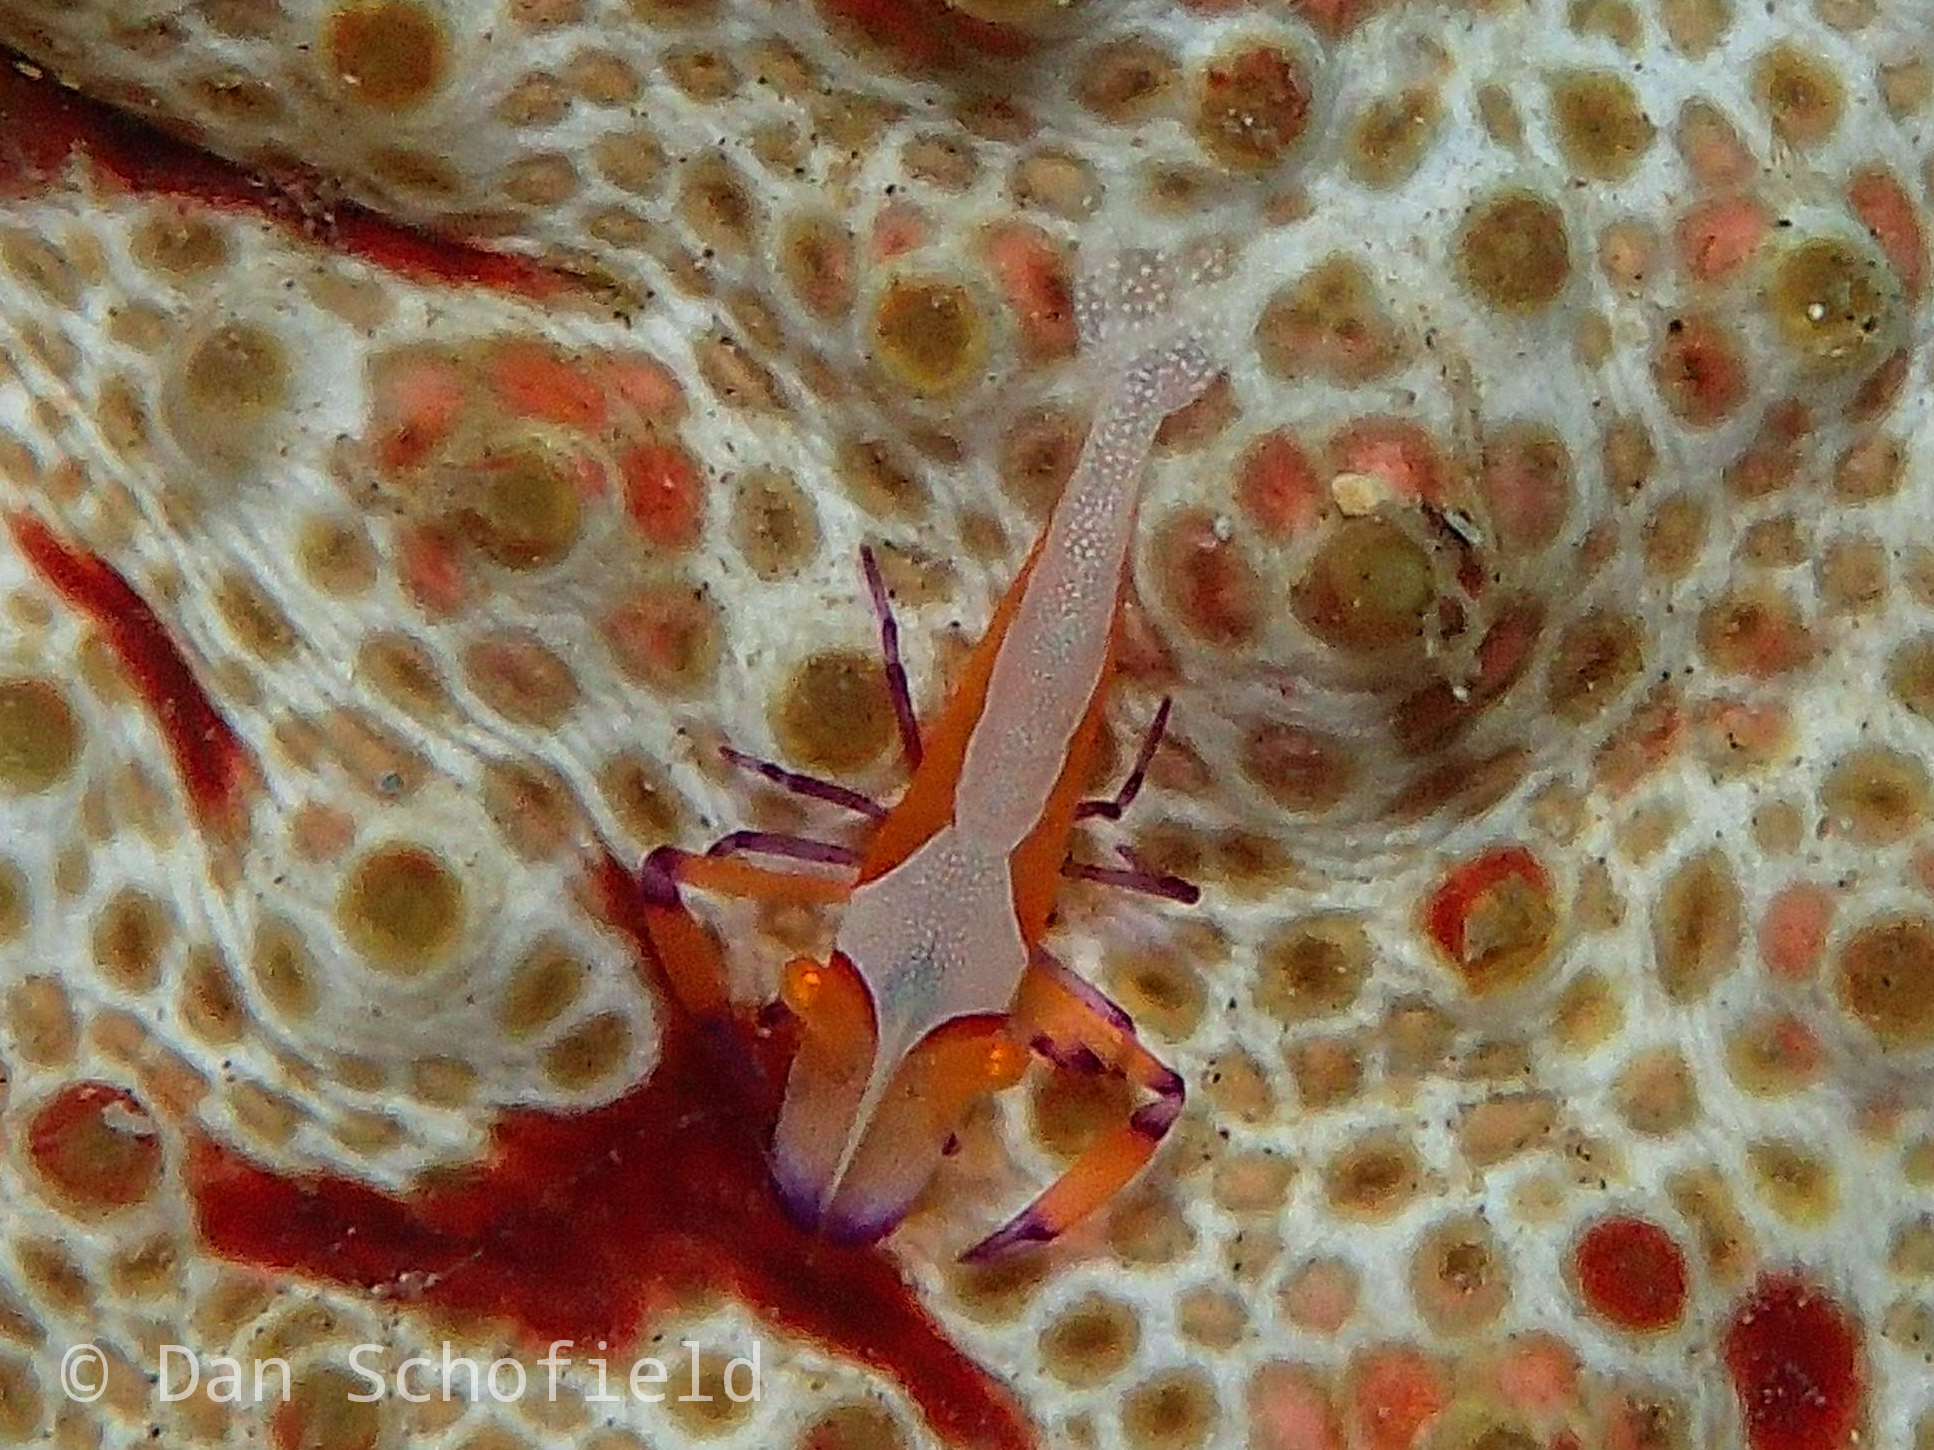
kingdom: Animalia
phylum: Arthropoda
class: Malacostraca
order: Decapoda
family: Palaemonidae
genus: Periclimenes
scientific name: Periclimenes rex
